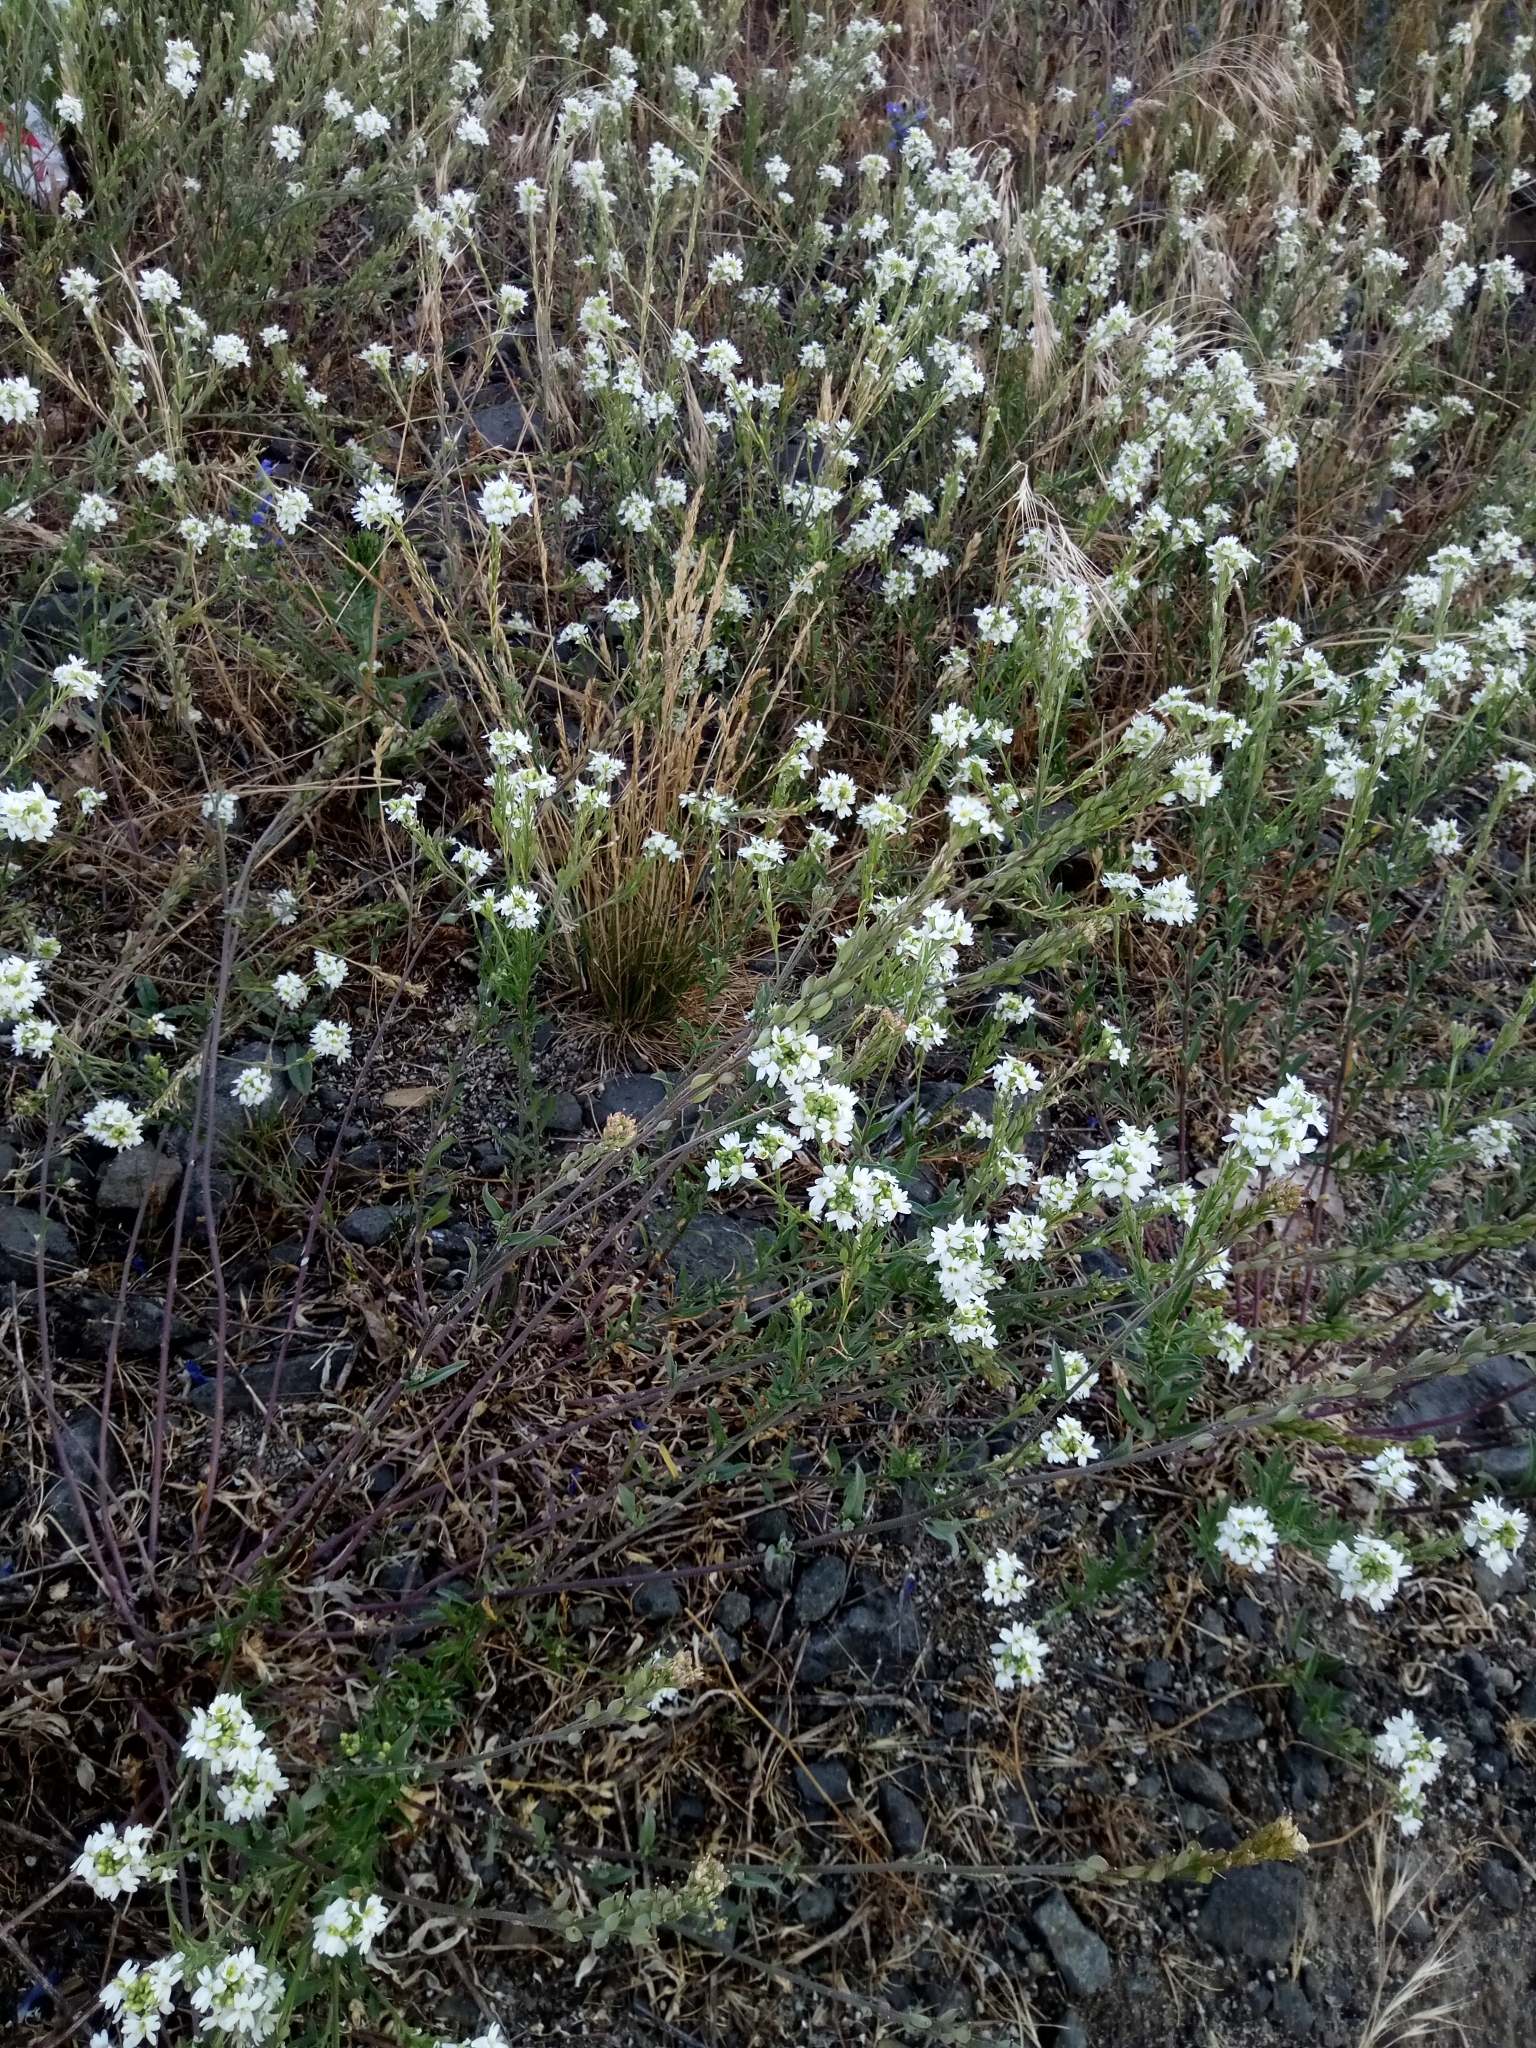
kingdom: Plantae
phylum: Tracheophyta
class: Magnoliopsida
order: Brassicales
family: Brassicaceae
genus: Berteroa
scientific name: Berteroa incana
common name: Hoary alison
